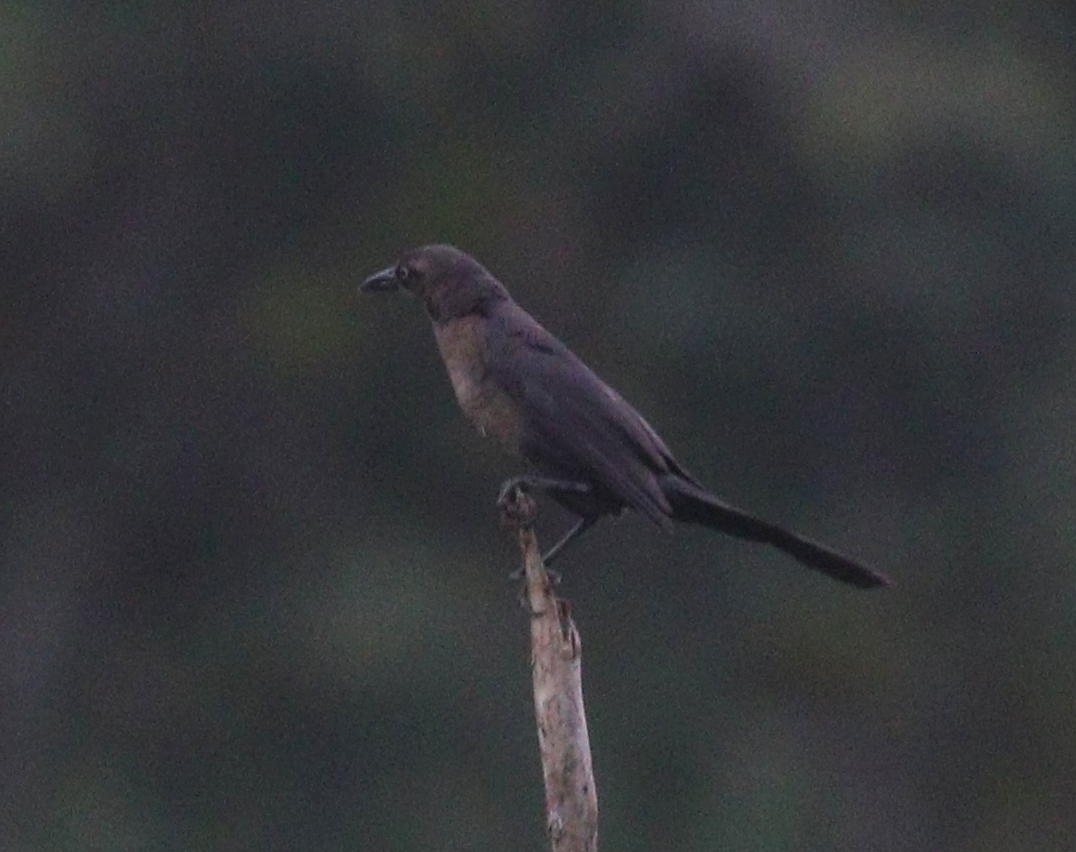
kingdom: Animalia
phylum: Chordata
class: Aves
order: Passeriformes
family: Icteridae
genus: Quiscalus
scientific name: Quiscalus mexicanus
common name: Great-tailed grackle
